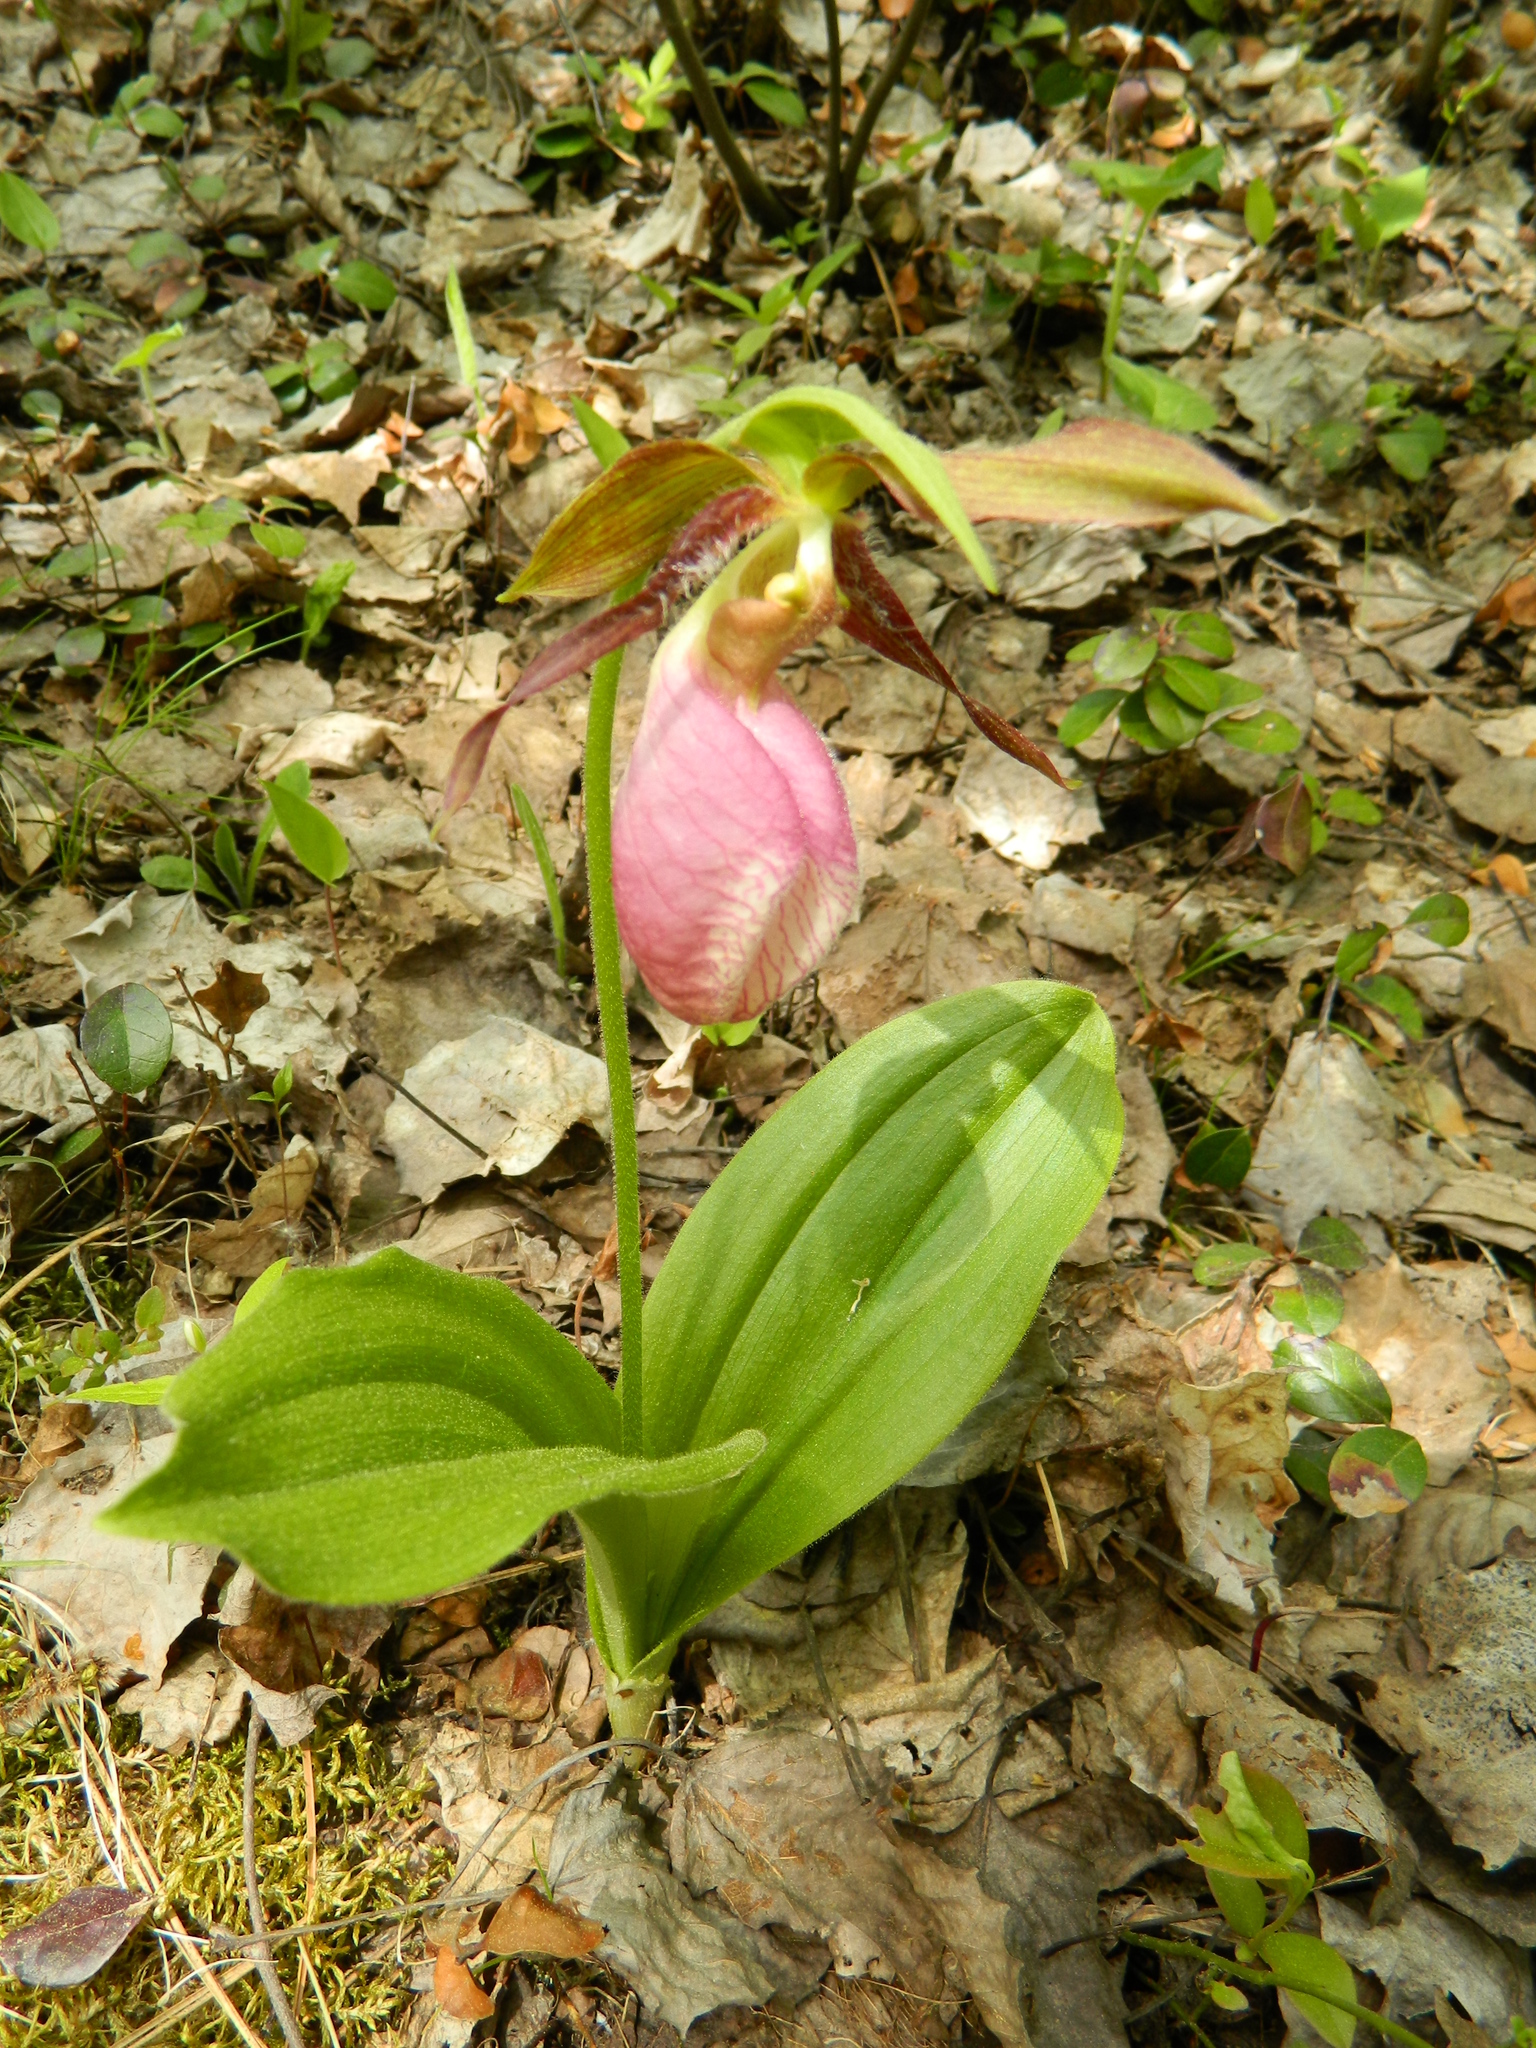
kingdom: Plantae
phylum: Tracheophyta
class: Liliopsida
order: Asparagales
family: Orchidaceae
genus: Cypripedium
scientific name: Cypripedium acaule
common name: Pink lady's-slipper
